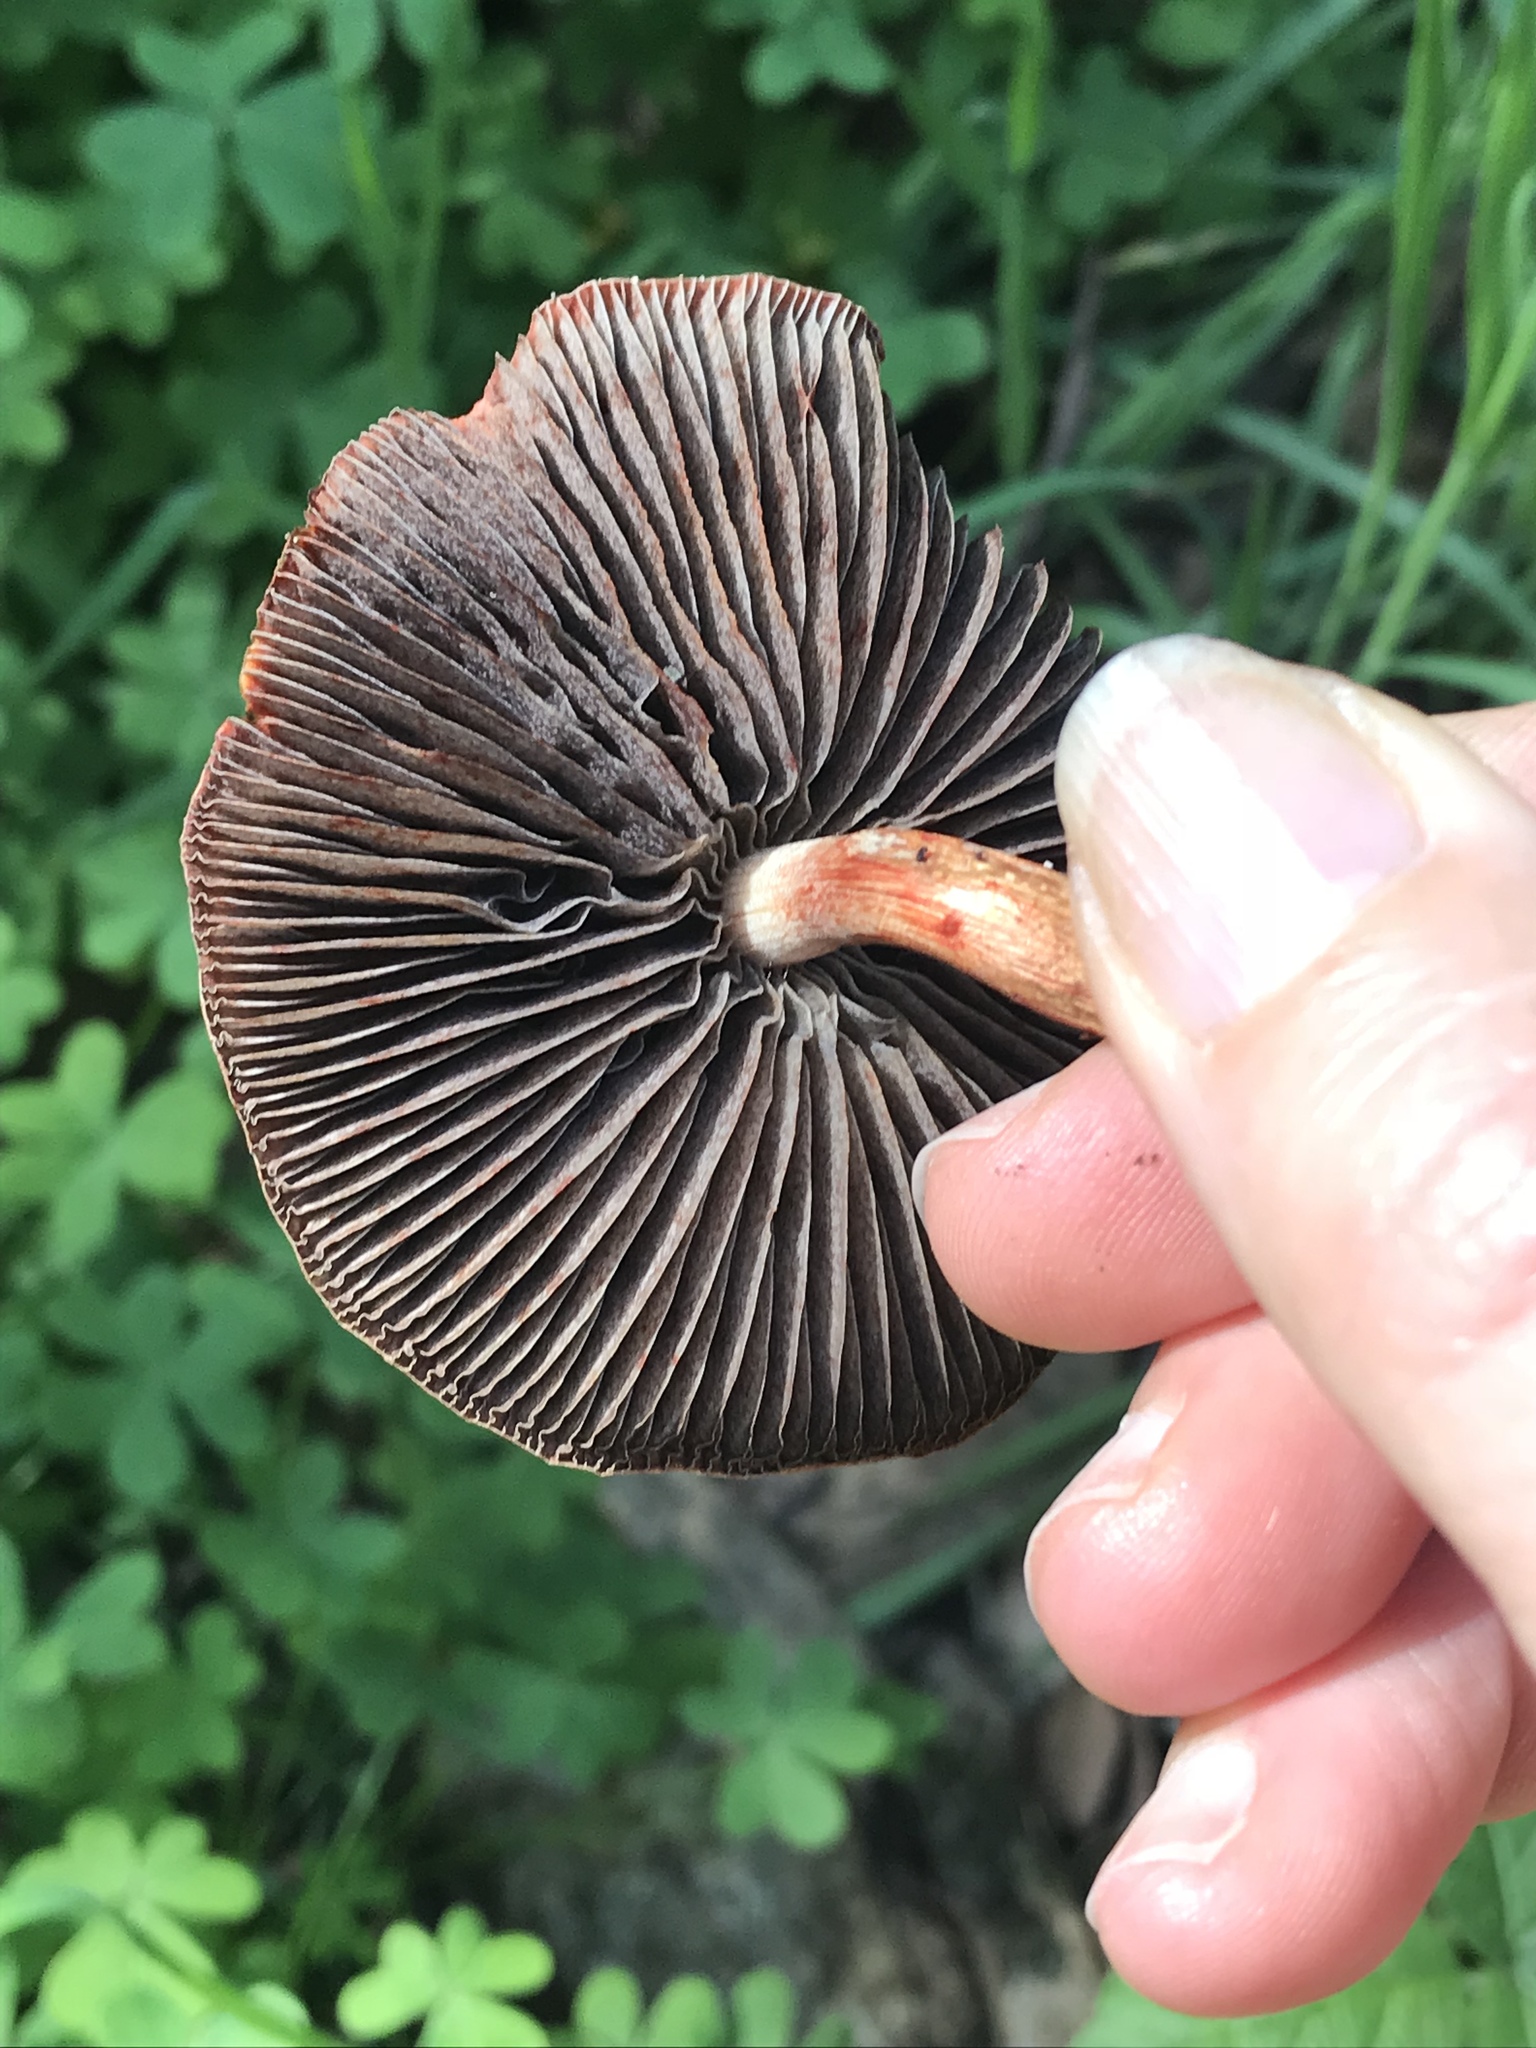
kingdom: Fungi
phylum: Basidiomycota
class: Agaricomycetes
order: Agaricales
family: Strophariaceae
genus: Leratiomyces
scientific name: Leratiomyces ceres
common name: Redlead roundhead
